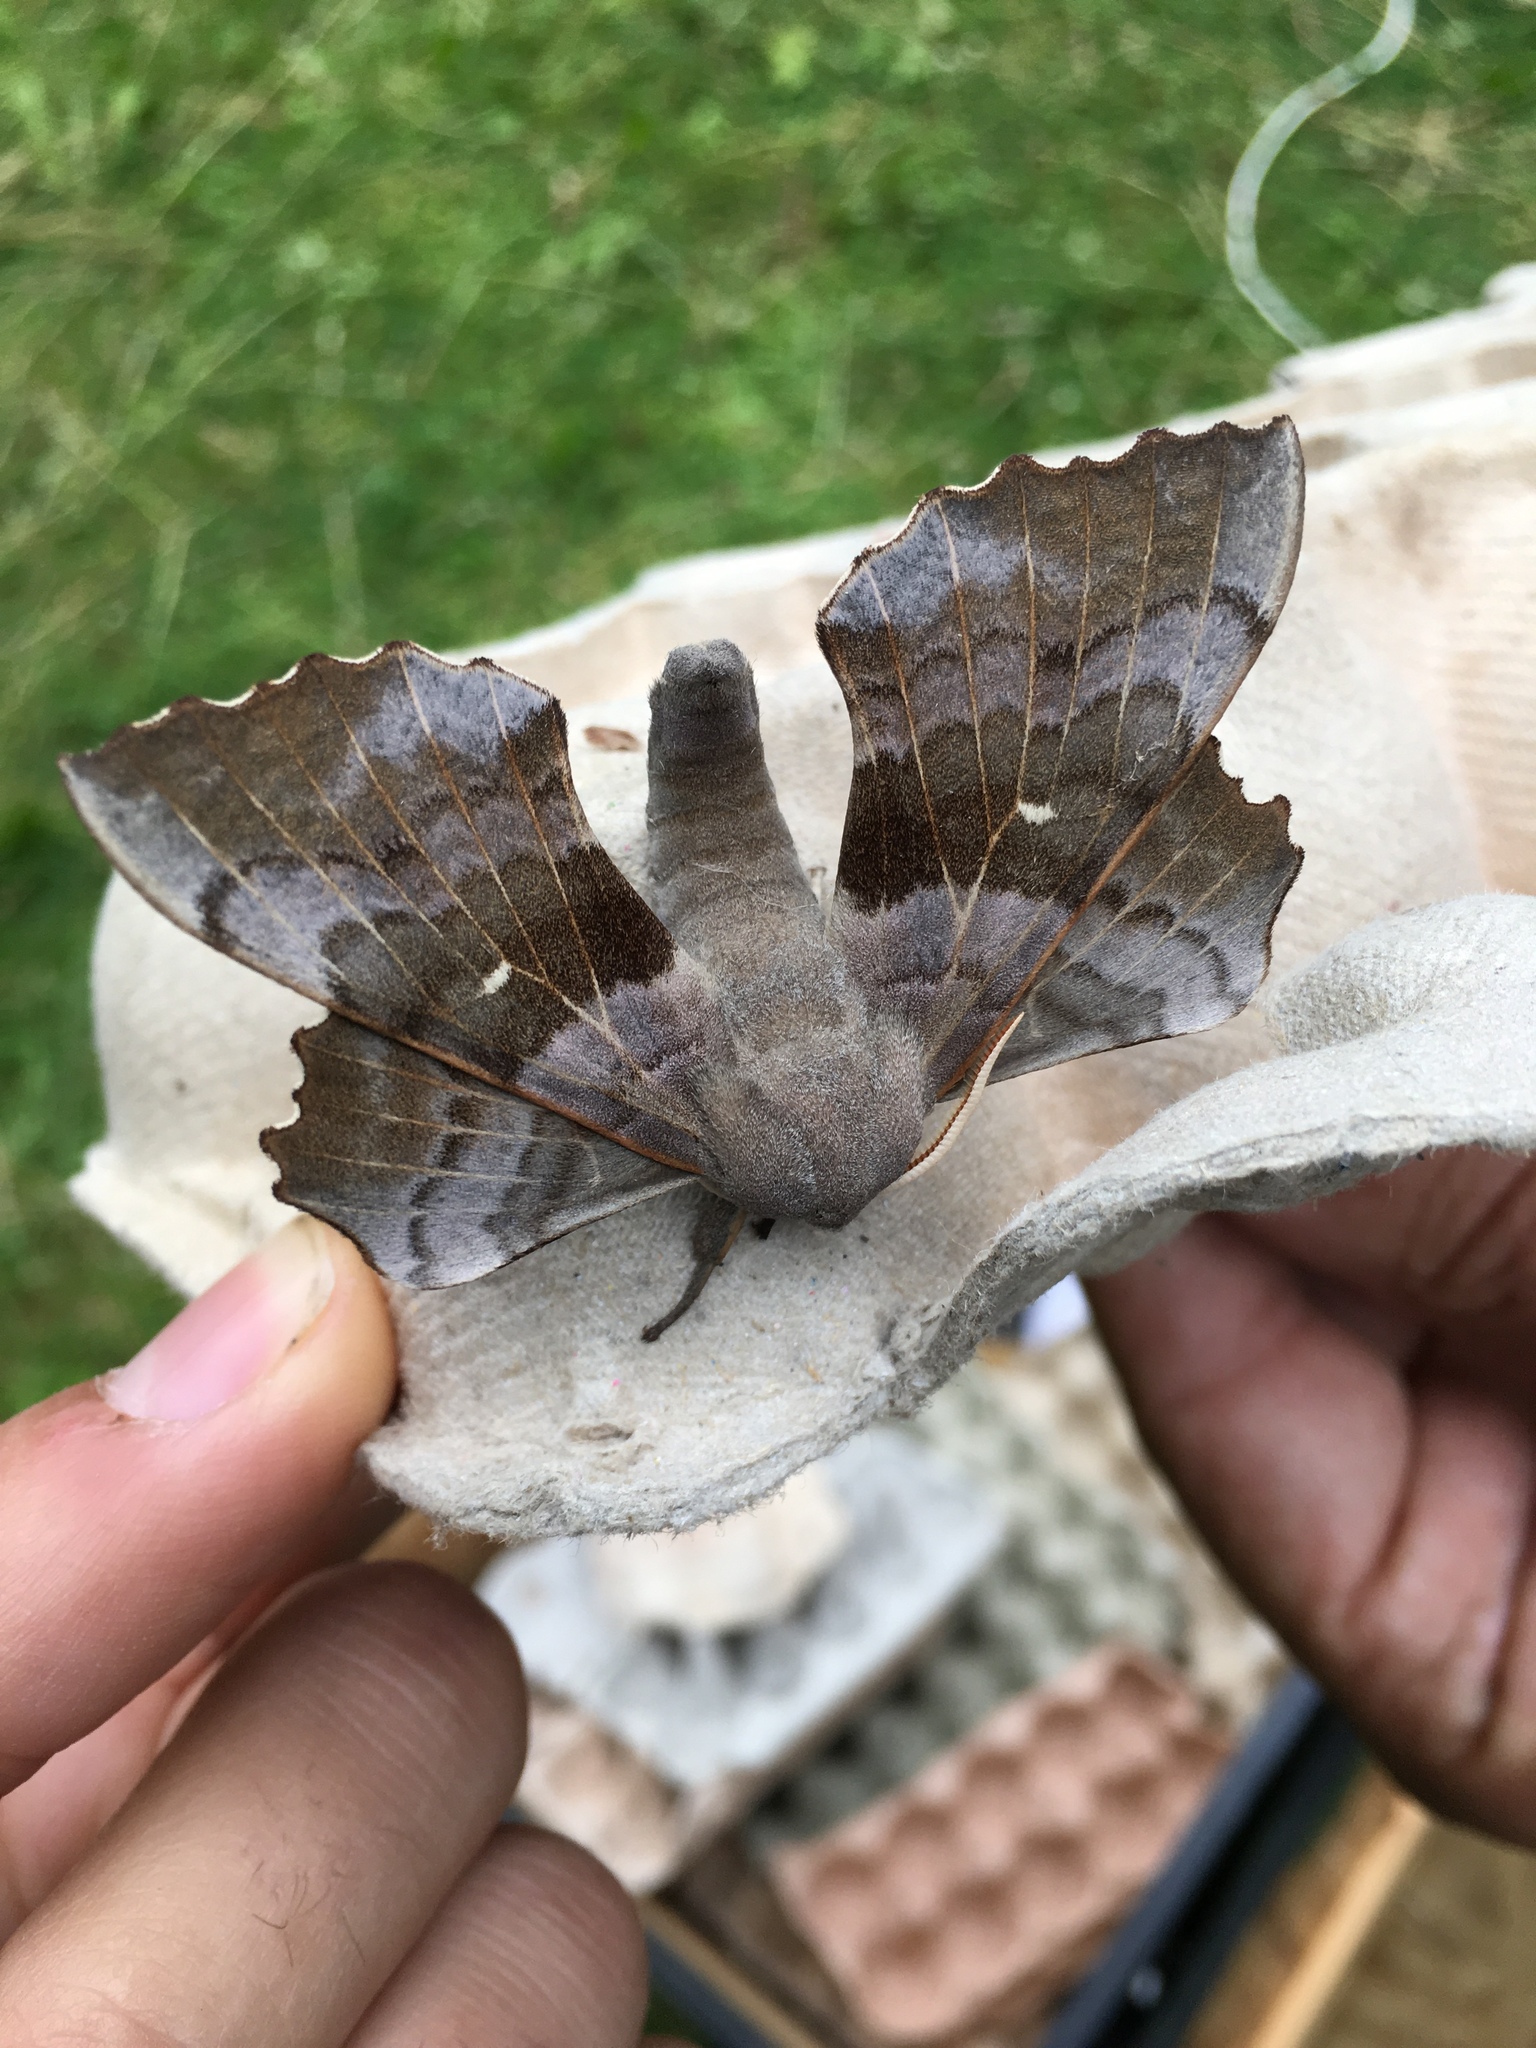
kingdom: Animalia
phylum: Arthropoda
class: Insecta
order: Lepidoptera
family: Sphingidae
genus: Laothoe
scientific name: Laothoe populi
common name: Poplar hawk-moth
